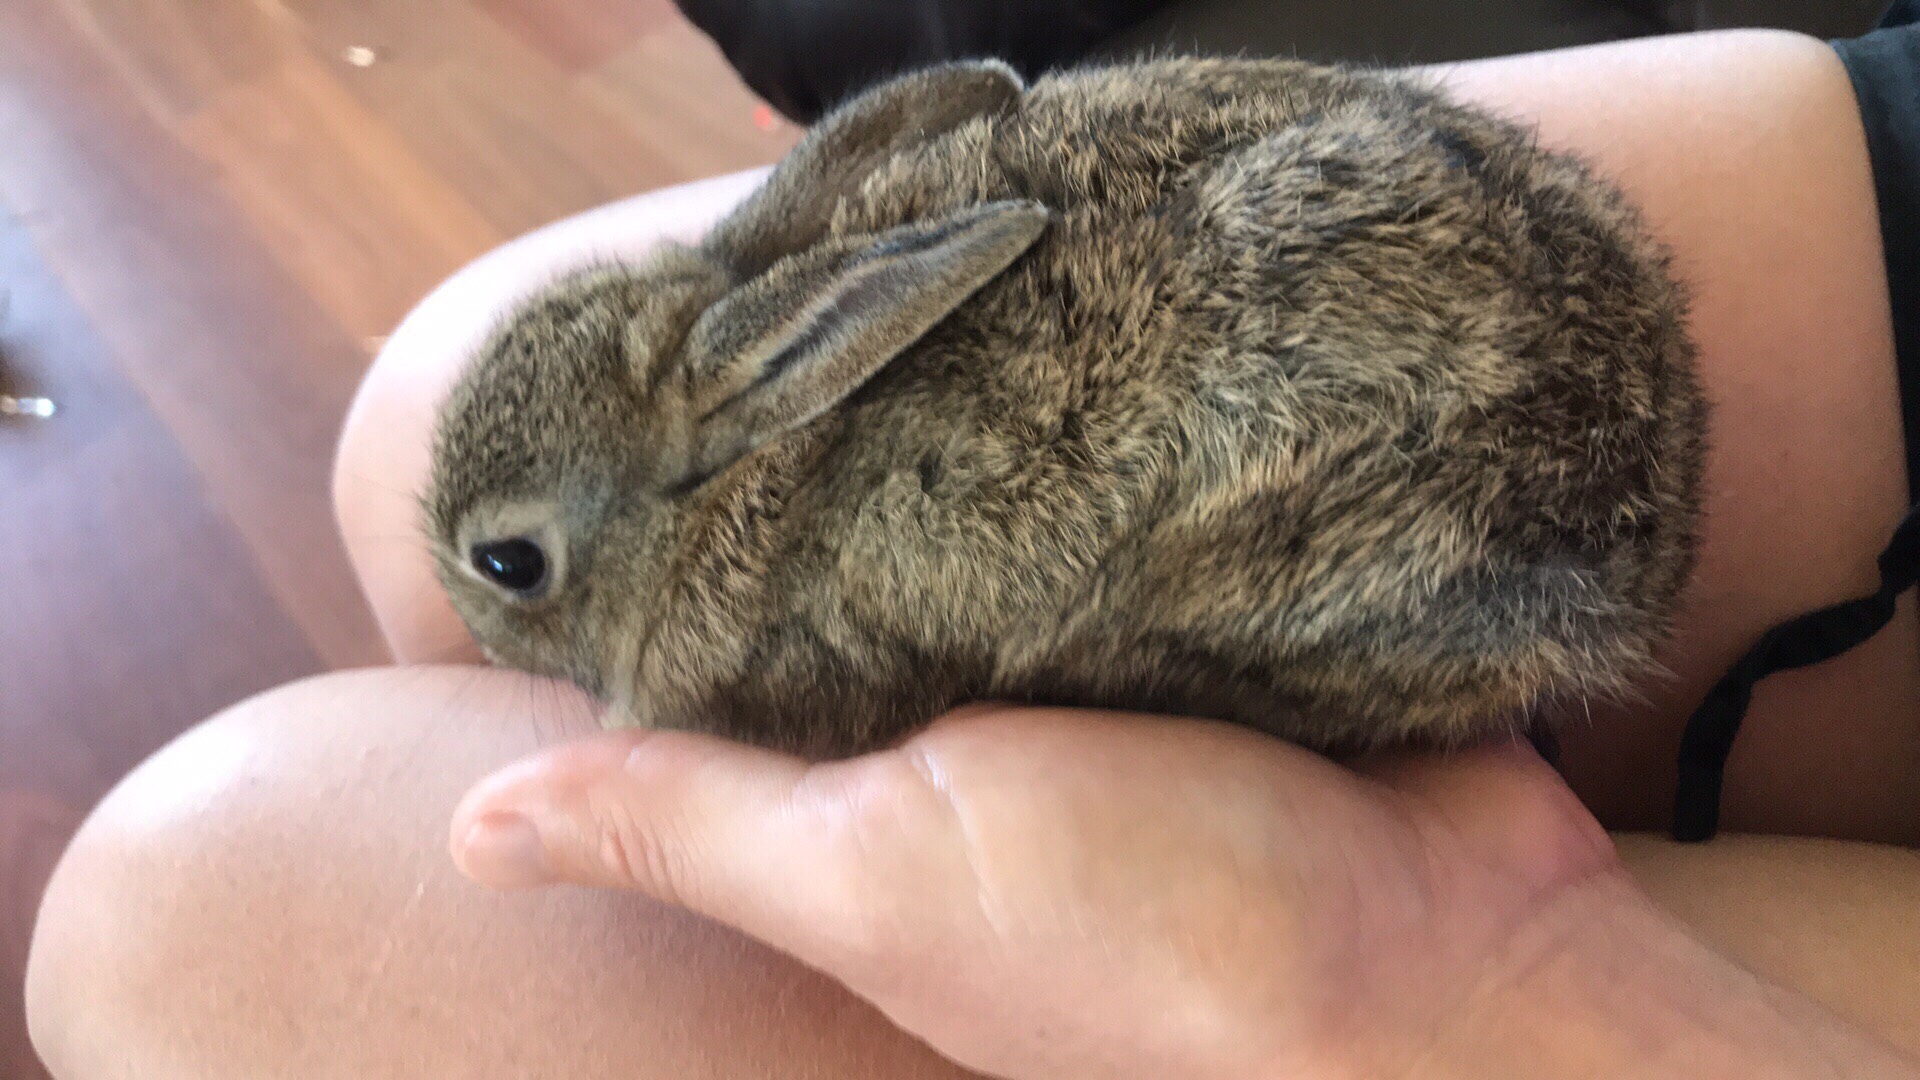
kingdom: Animalia
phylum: Chordata
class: Mammalia
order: Lagomorpha
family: Leporidae
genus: Oryctolagus
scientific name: Oryctolagus cuniculus
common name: European rabbit
